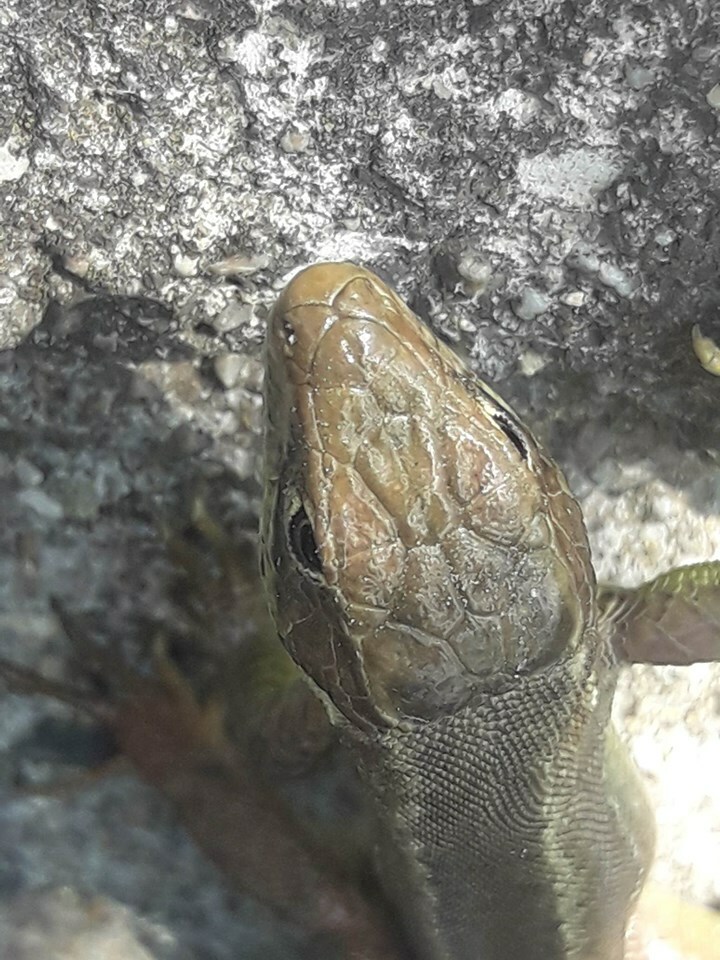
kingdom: Animalia
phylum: Chordata
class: Squamata
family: Lacertidae
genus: Lacerta
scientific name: Lacerta viridis
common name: European green lizard
